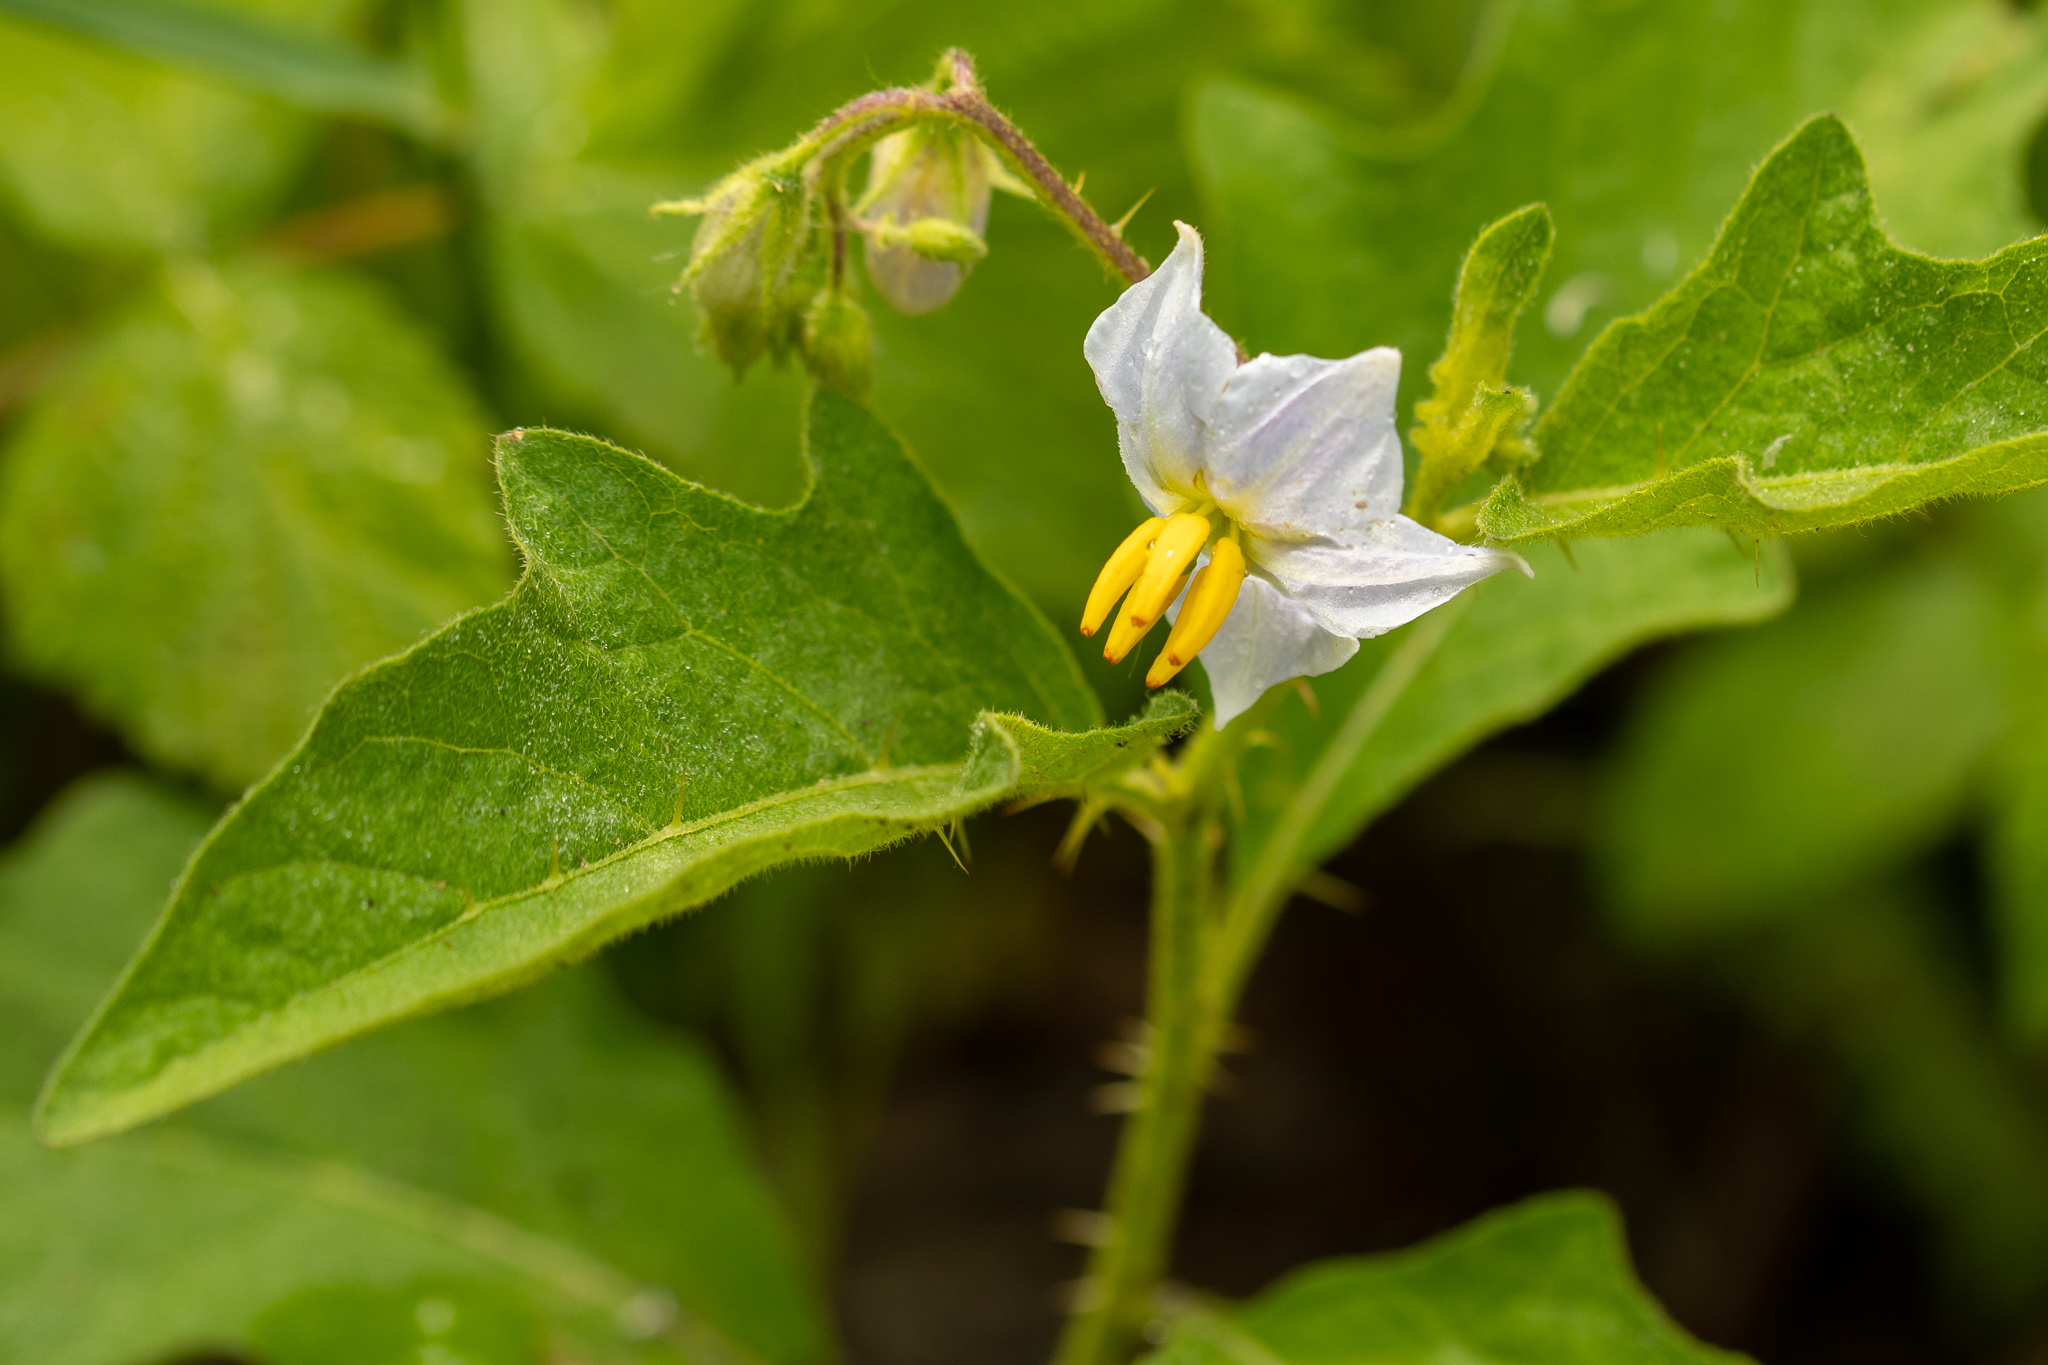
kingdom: Plantae
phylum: Tracheophyta
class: Magnoliopsida
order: Solanales
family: Solanaceae
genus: Solanum
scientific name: Solanum carolinense
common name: Horse-nettle
